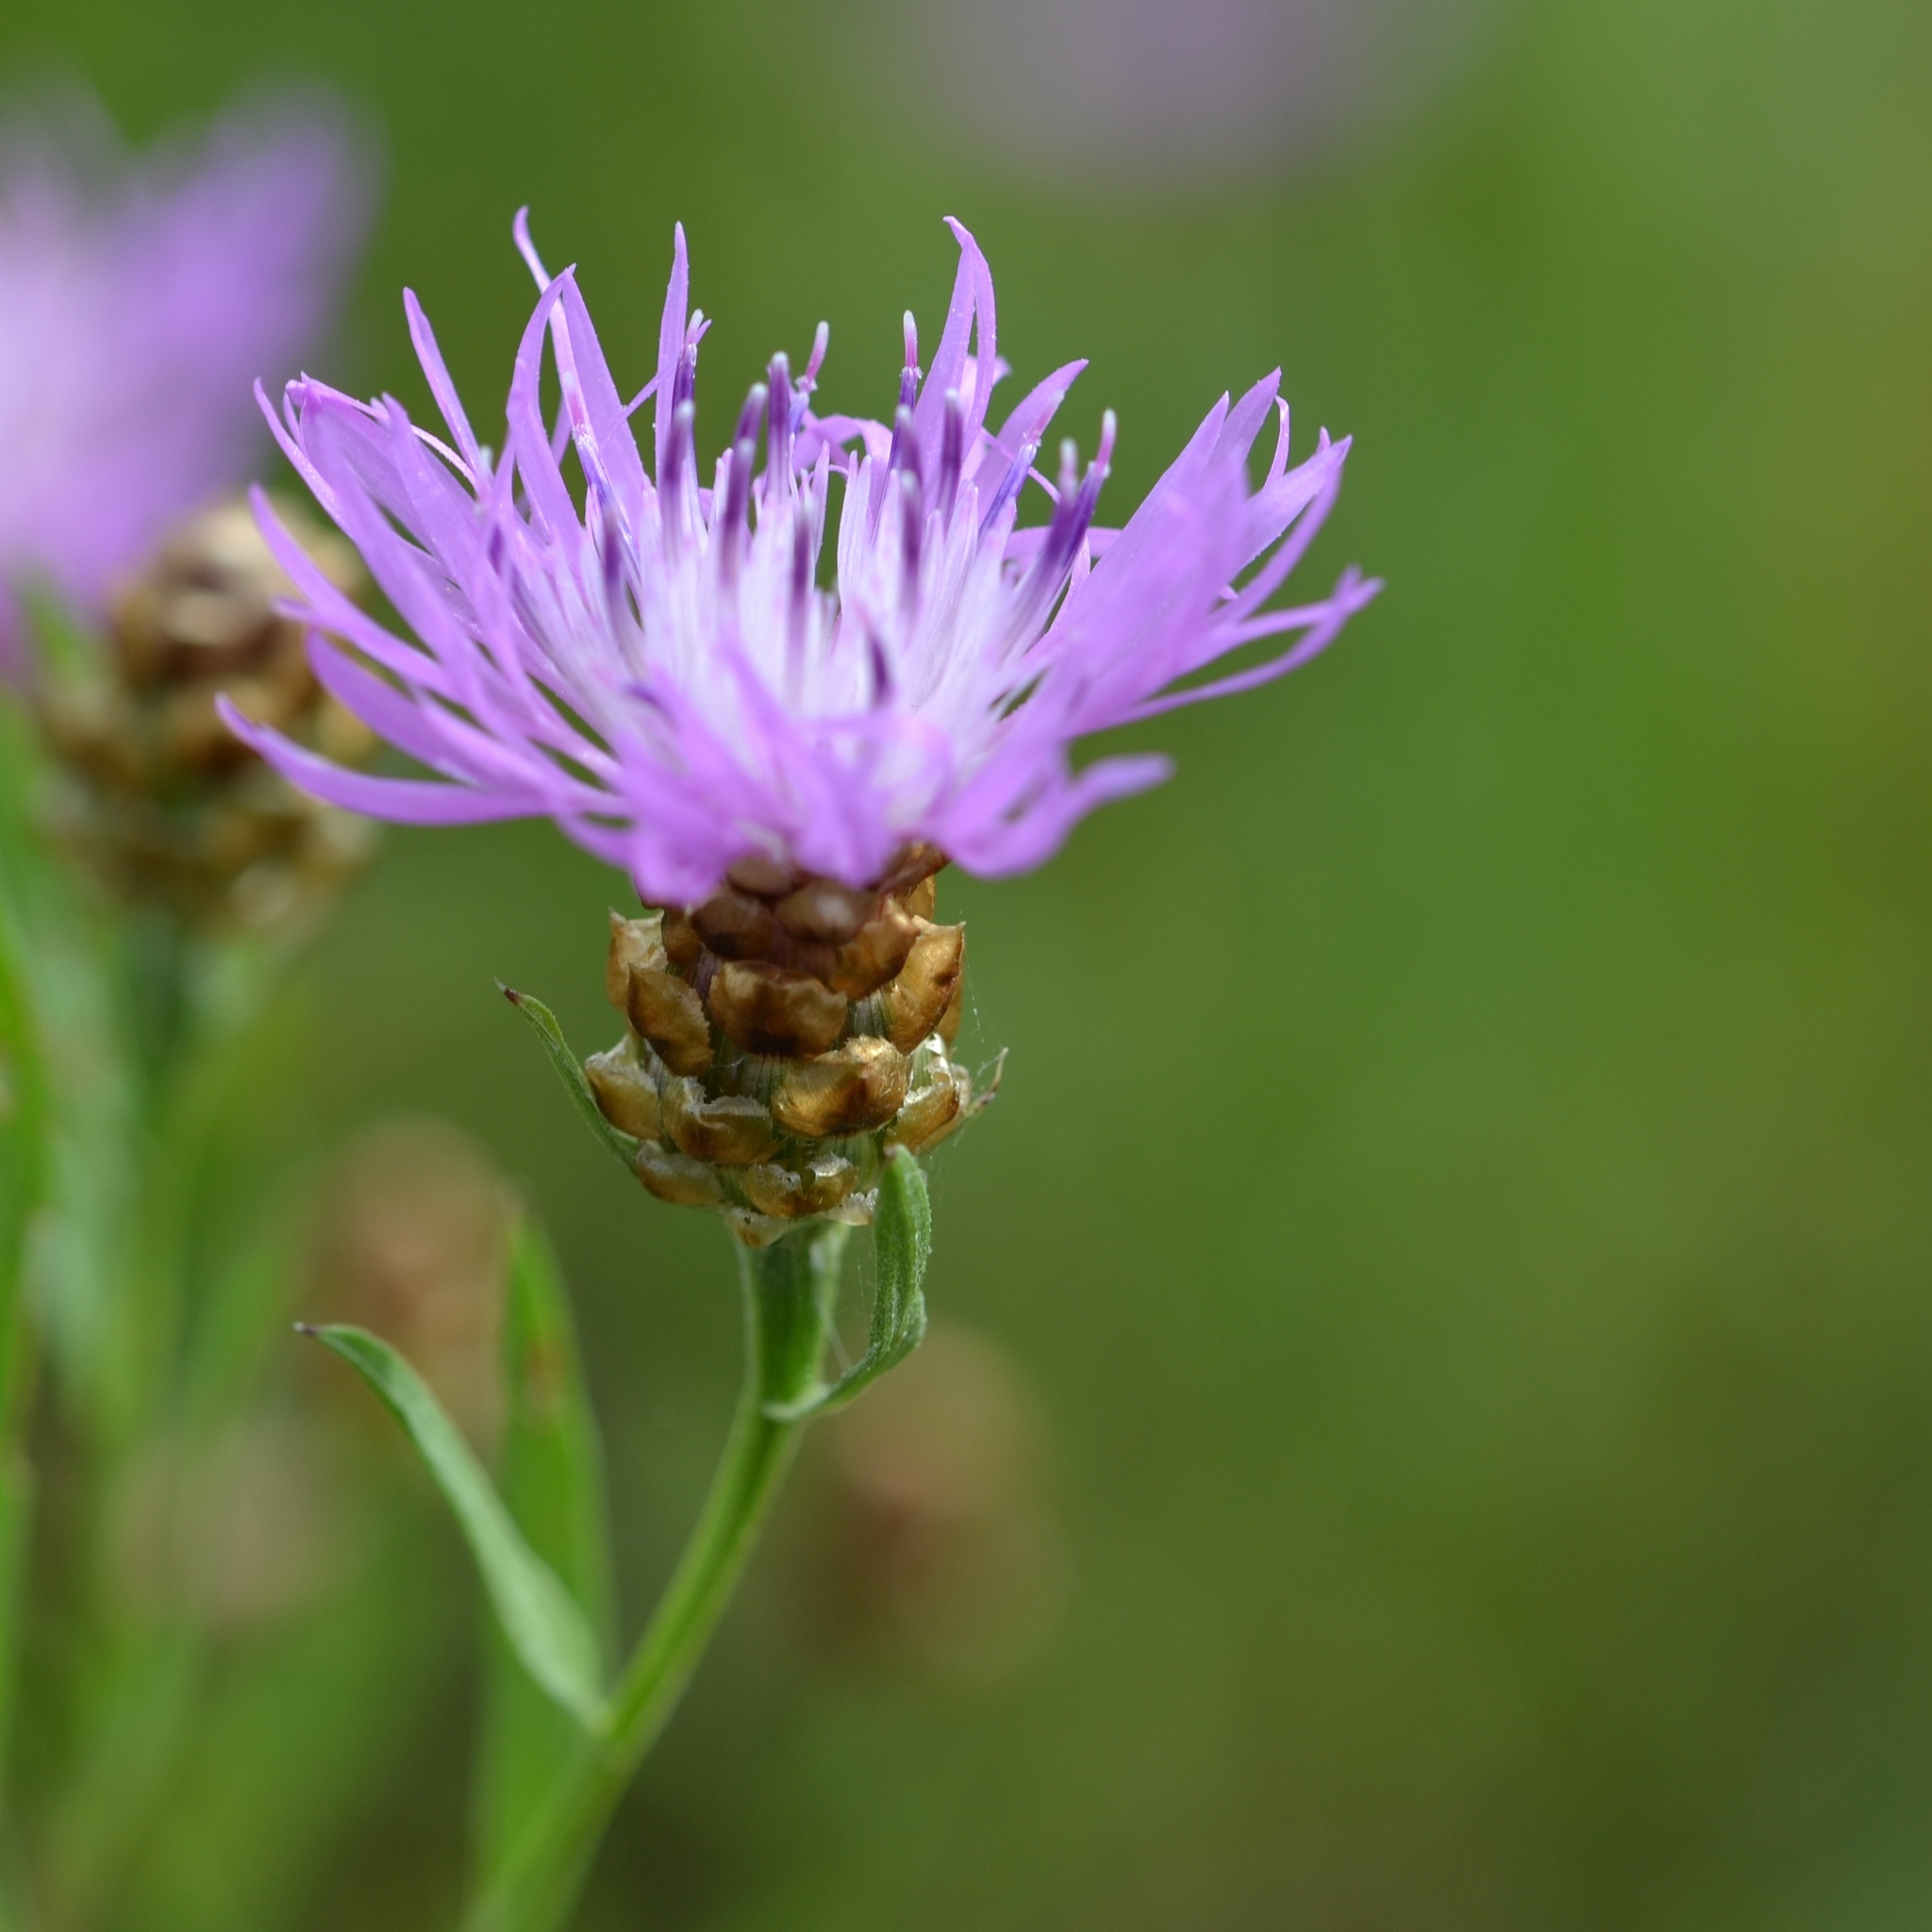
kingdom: Plantae
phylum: Tracheophyta
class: Magnoliopsida
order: Asterales
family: Asteraceae
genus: Centaurea
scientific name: Centaurea jacea
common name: Brown knapweed
